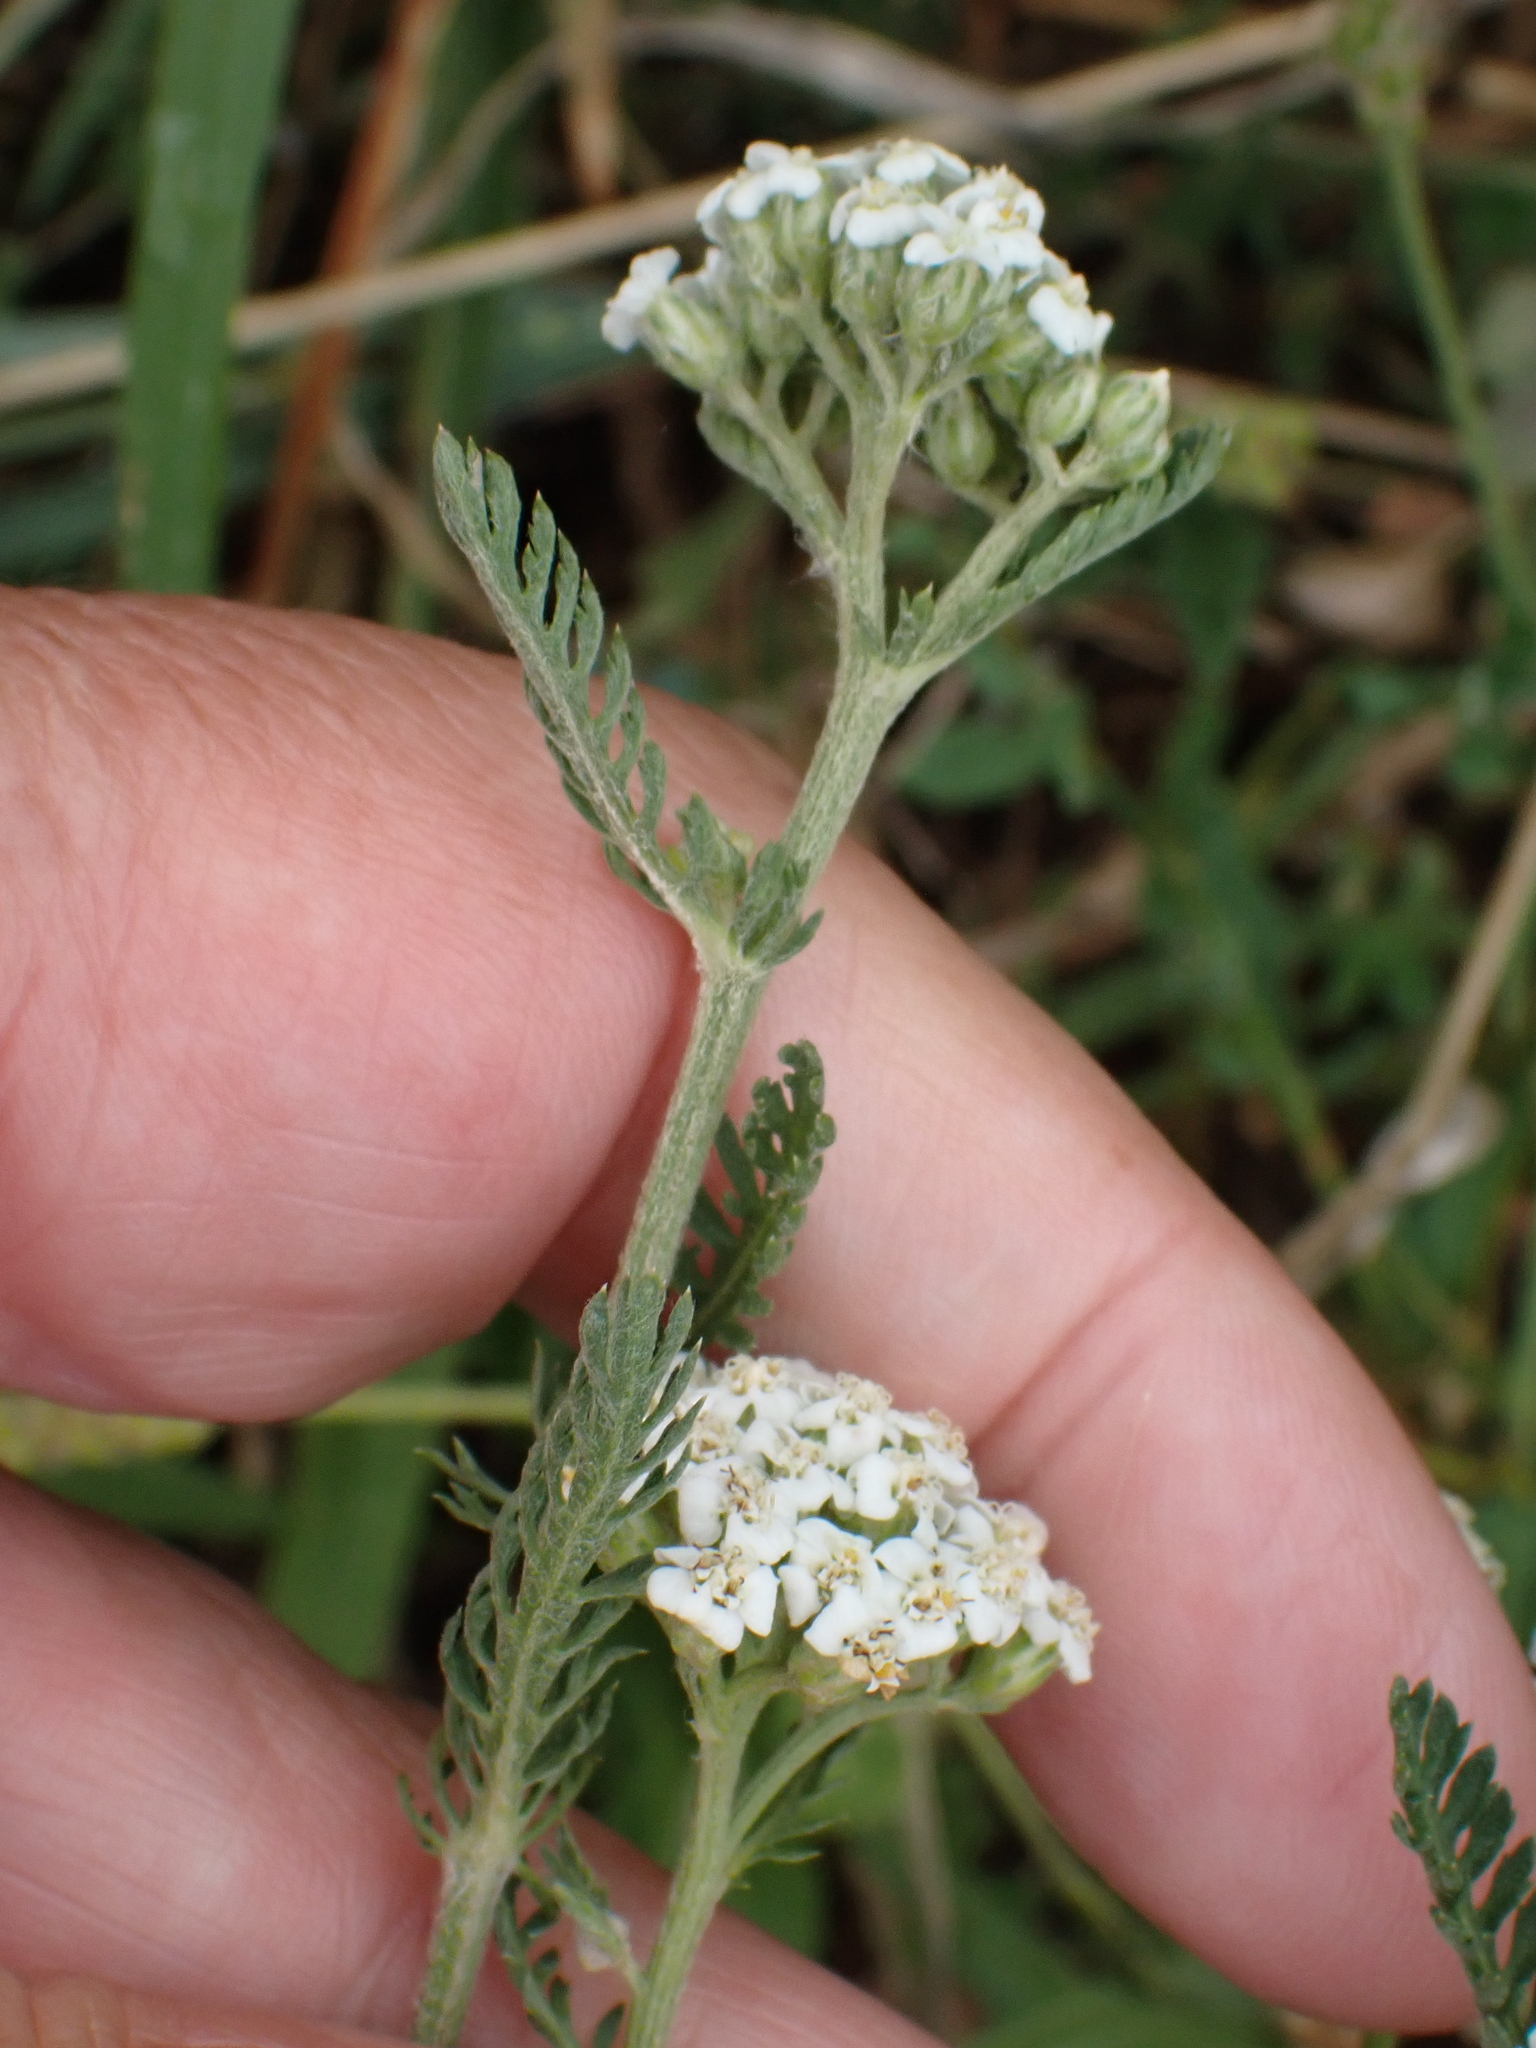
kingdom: Plantae
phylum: Tracheophyta
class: Magnoliopsida
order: Asterales
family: Asteraceae
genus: Achillea
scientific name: Achillea millefolium
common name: Yarrow
